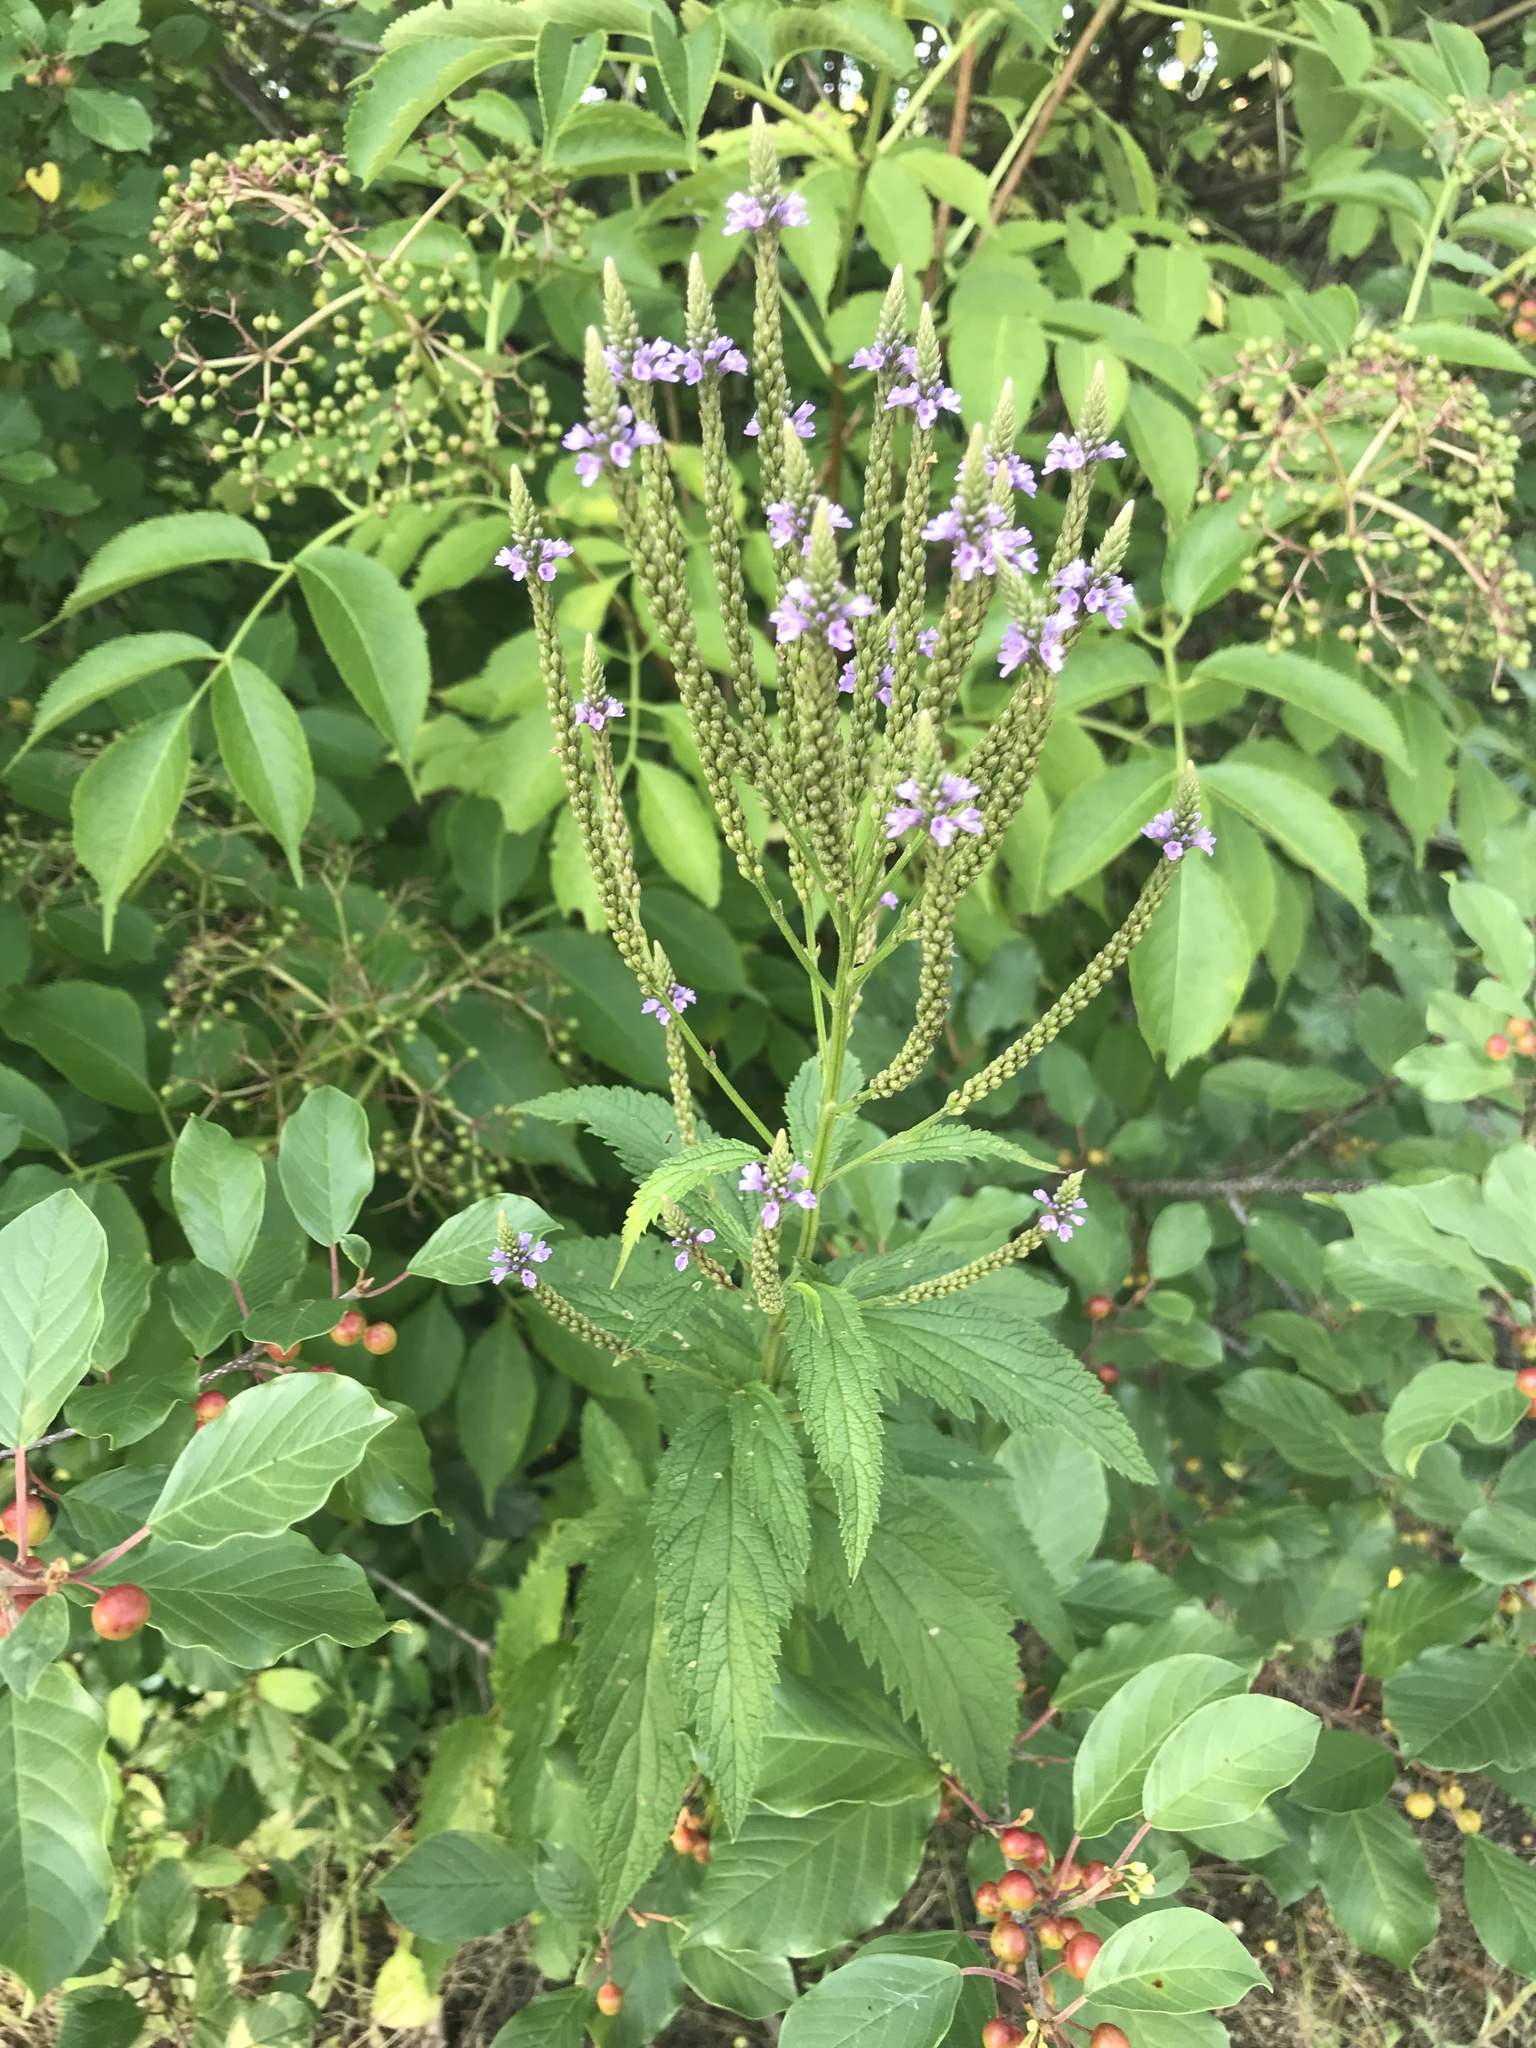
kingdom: Plantae
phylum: Tracheophyta
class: Magnoliopsida
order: Lamiales
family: Verbenaceae
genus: Verbena
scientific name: Verbena hastata
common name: American blue vervain
